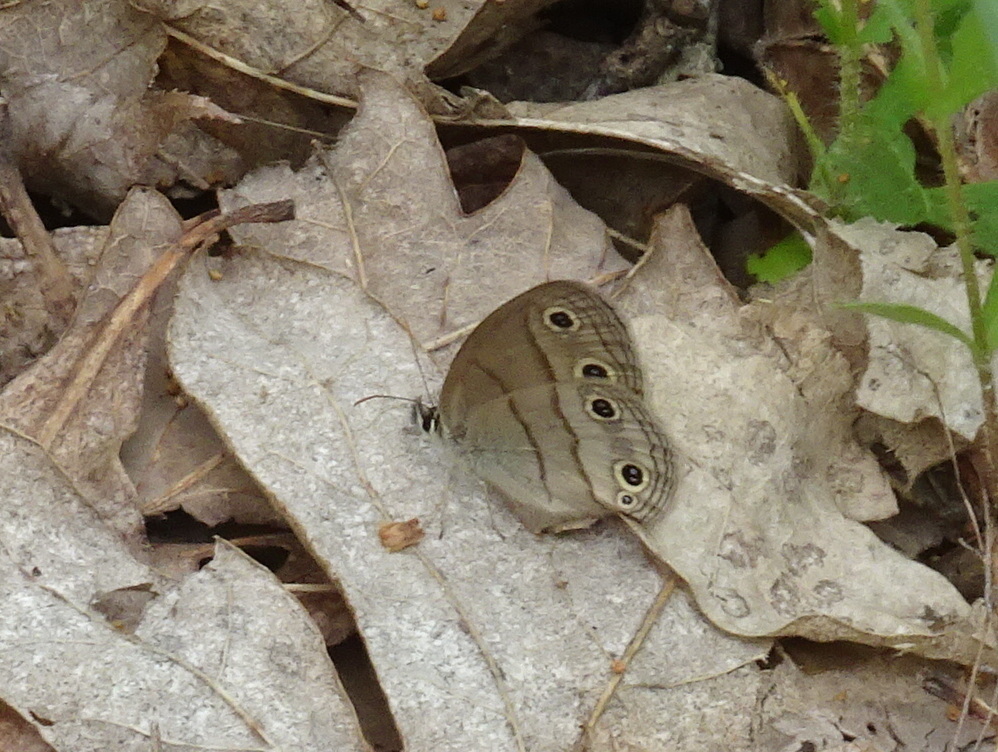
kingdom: Animalia
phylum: Arthropoda
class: Insecta
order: Lepidoptera
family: Nymphalidae
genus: Euptychia
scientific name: Euptychia cymela
